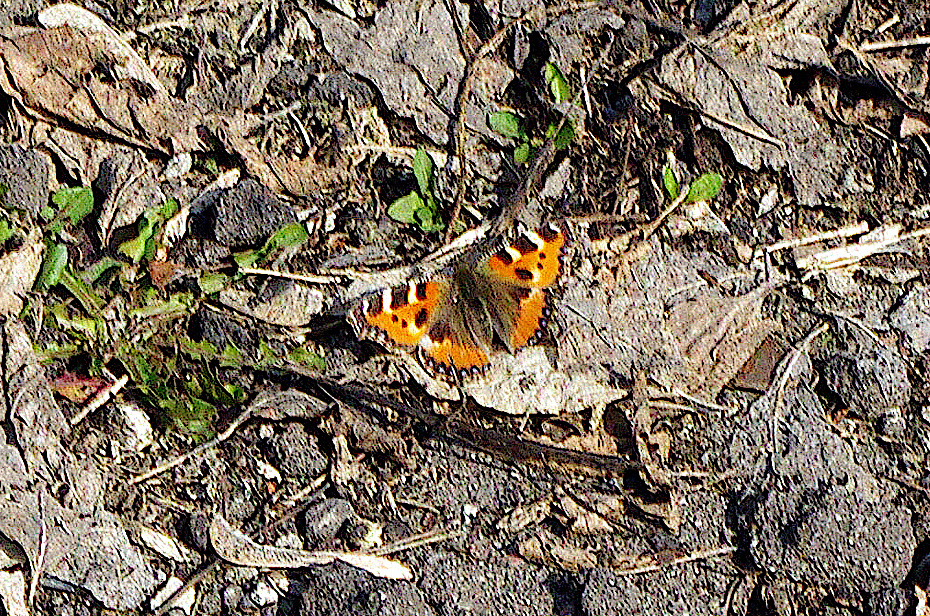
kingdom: Animalia
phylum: Arthropoda
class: Insecta
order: Lepidoptera
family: Nymphalidae
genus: Aglais
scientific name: Aglais urticae
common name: Small tortoiseshell
